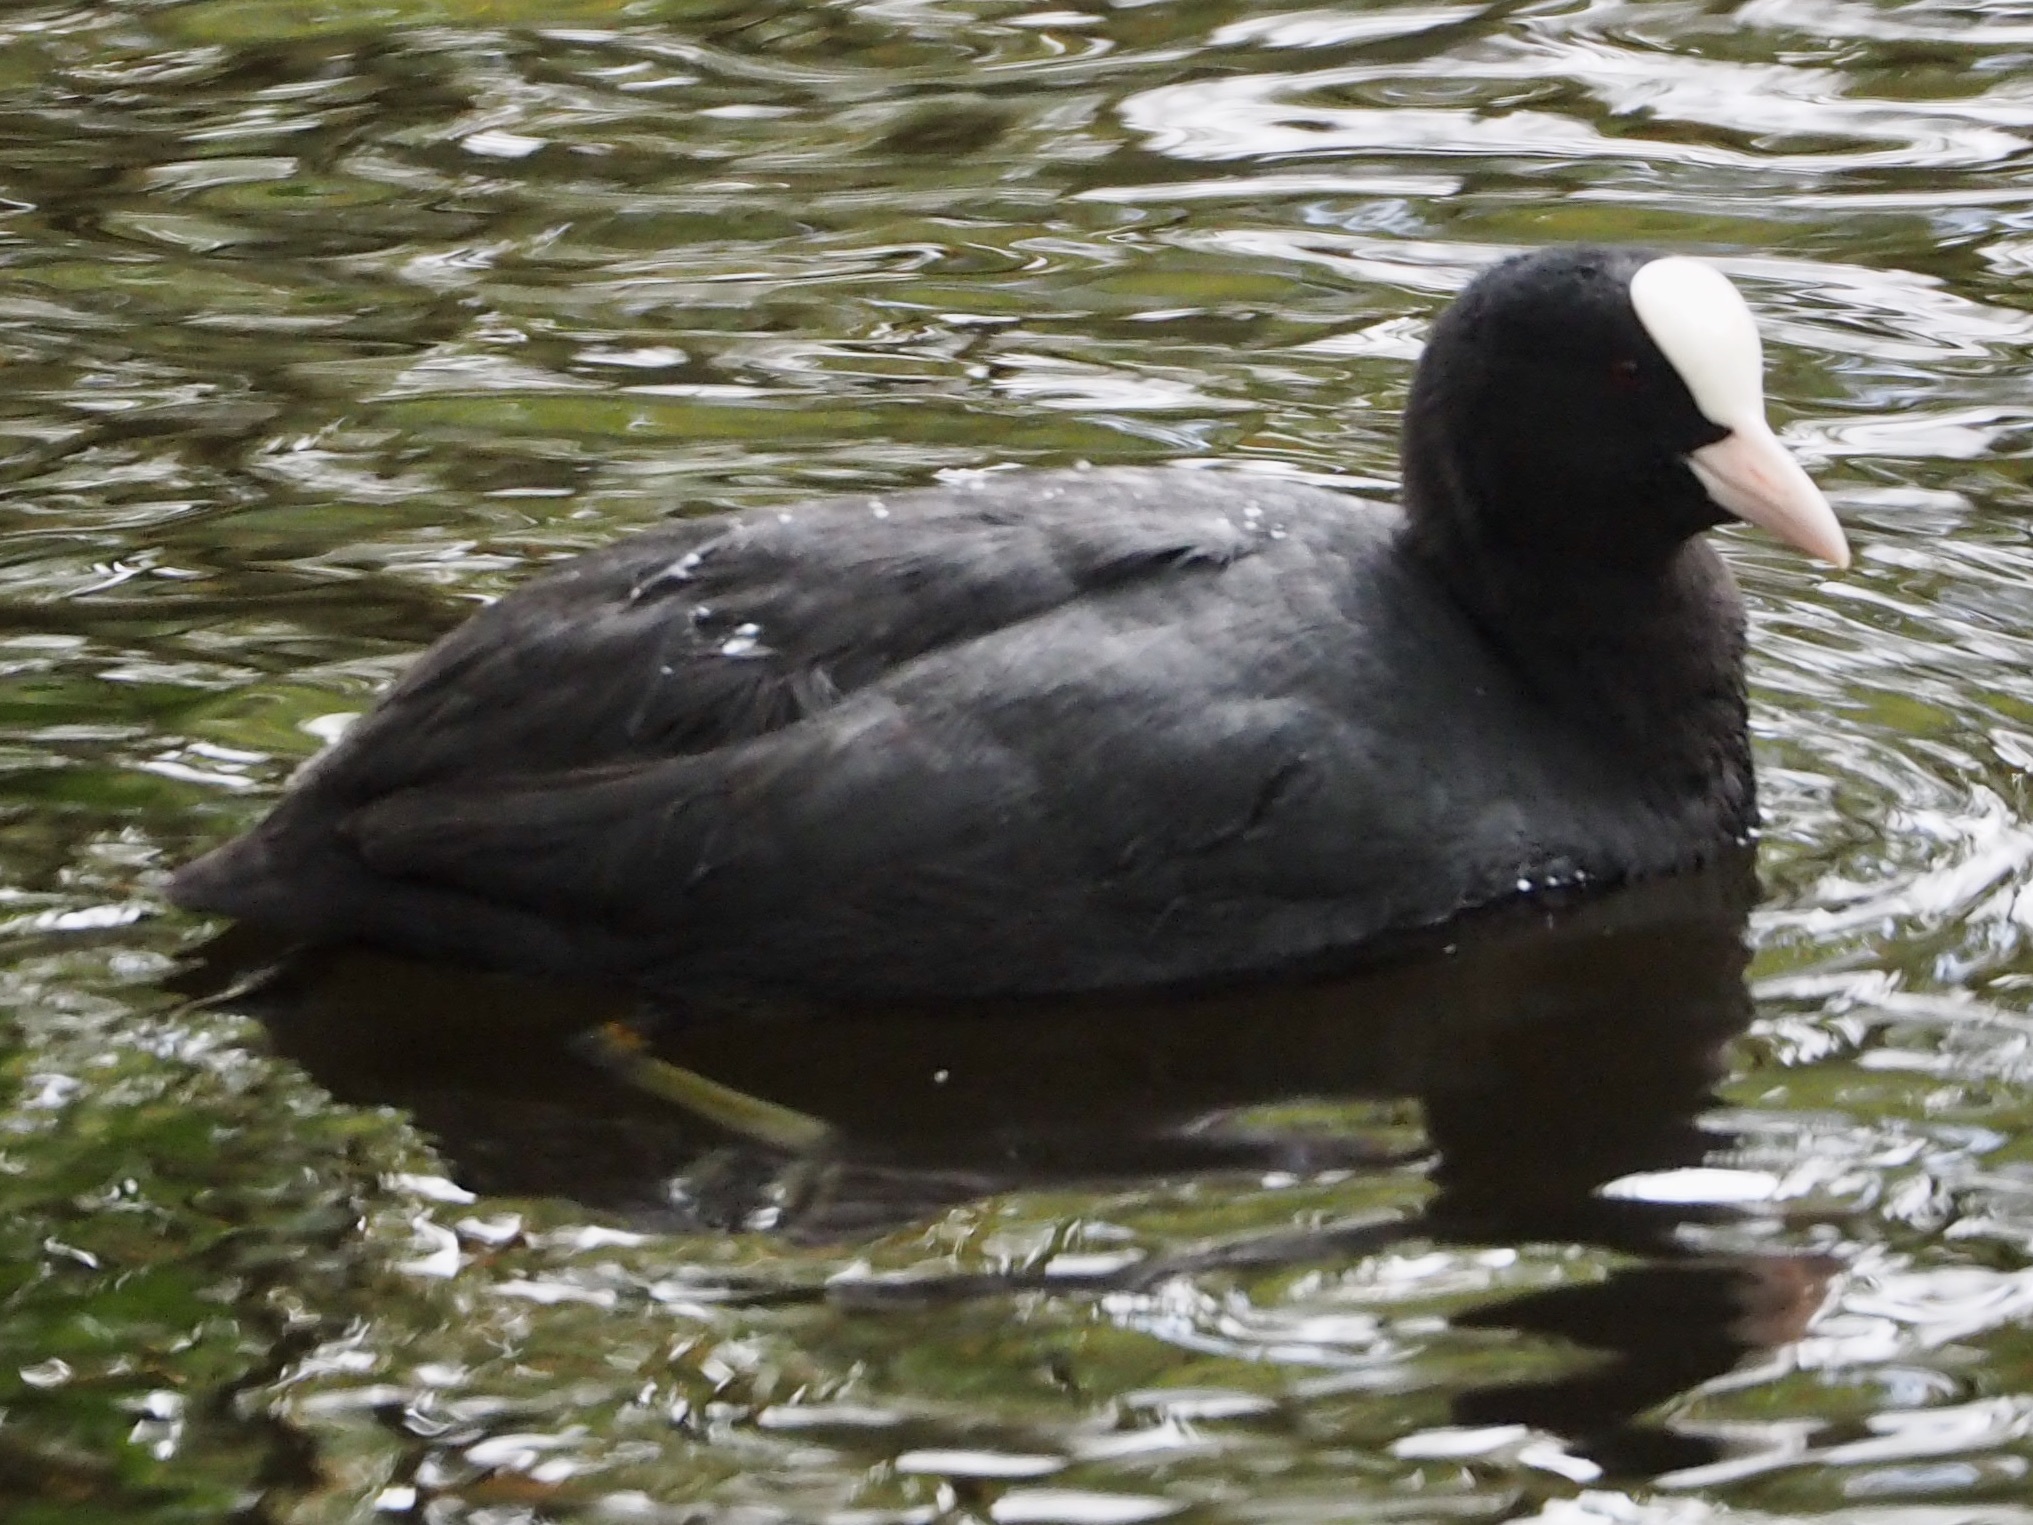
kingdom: Animalia
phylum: Chordata
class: Aves
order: Gruiformes
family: Rallidae
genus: Fulica
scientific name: Fulica atra
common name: Eurasian coot
